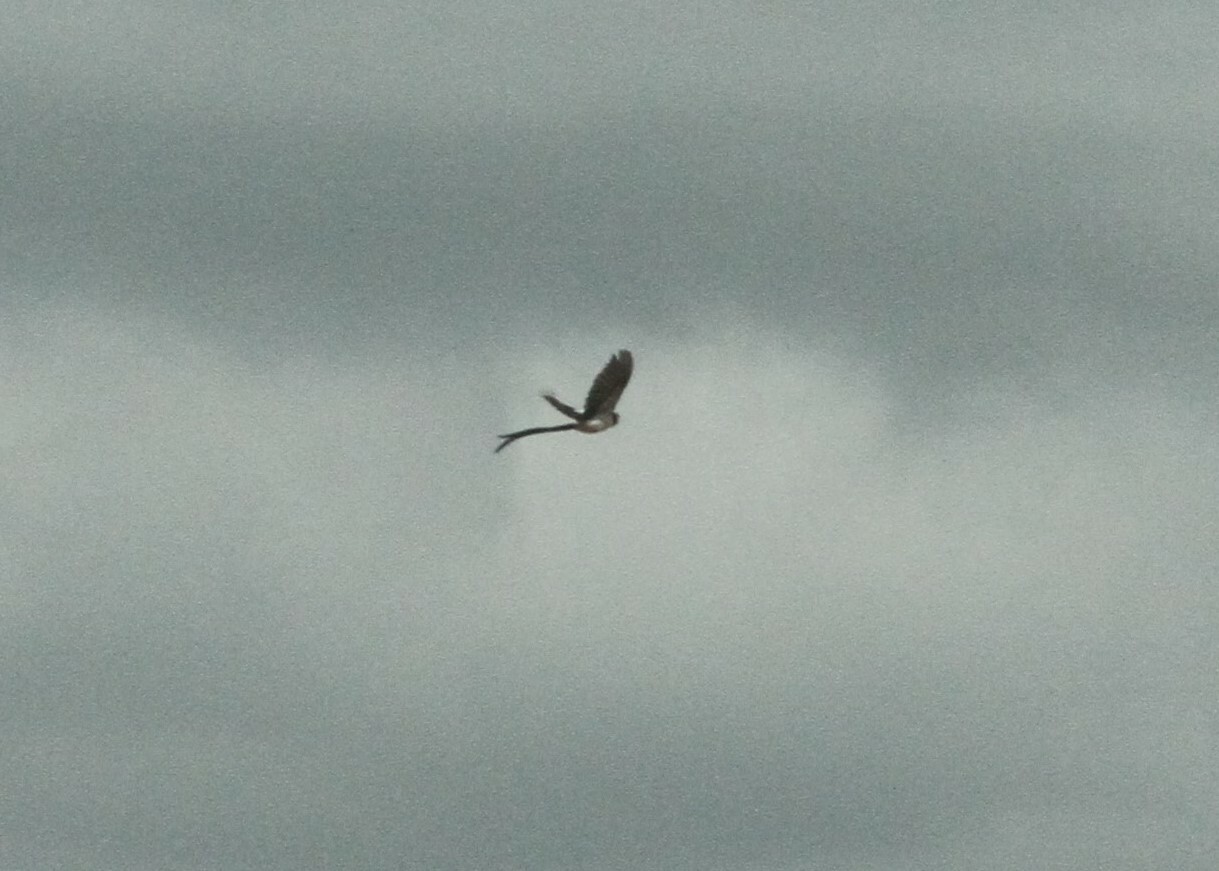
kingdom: Animalia
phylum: Chordata
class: Aves
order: Passeriformes
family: Viduidae
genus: Vidua
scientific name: Vidua macroura
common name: Pin-tailed whydah
